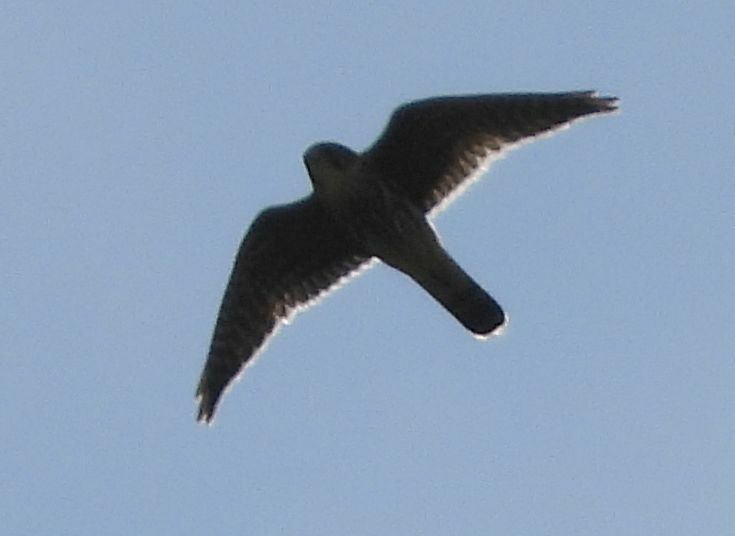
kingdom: Animalia
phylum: Chordata
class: Aves
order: Falconiformes
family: Falconidae
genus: Falco
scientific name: Falco columbarius
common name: Merlin
